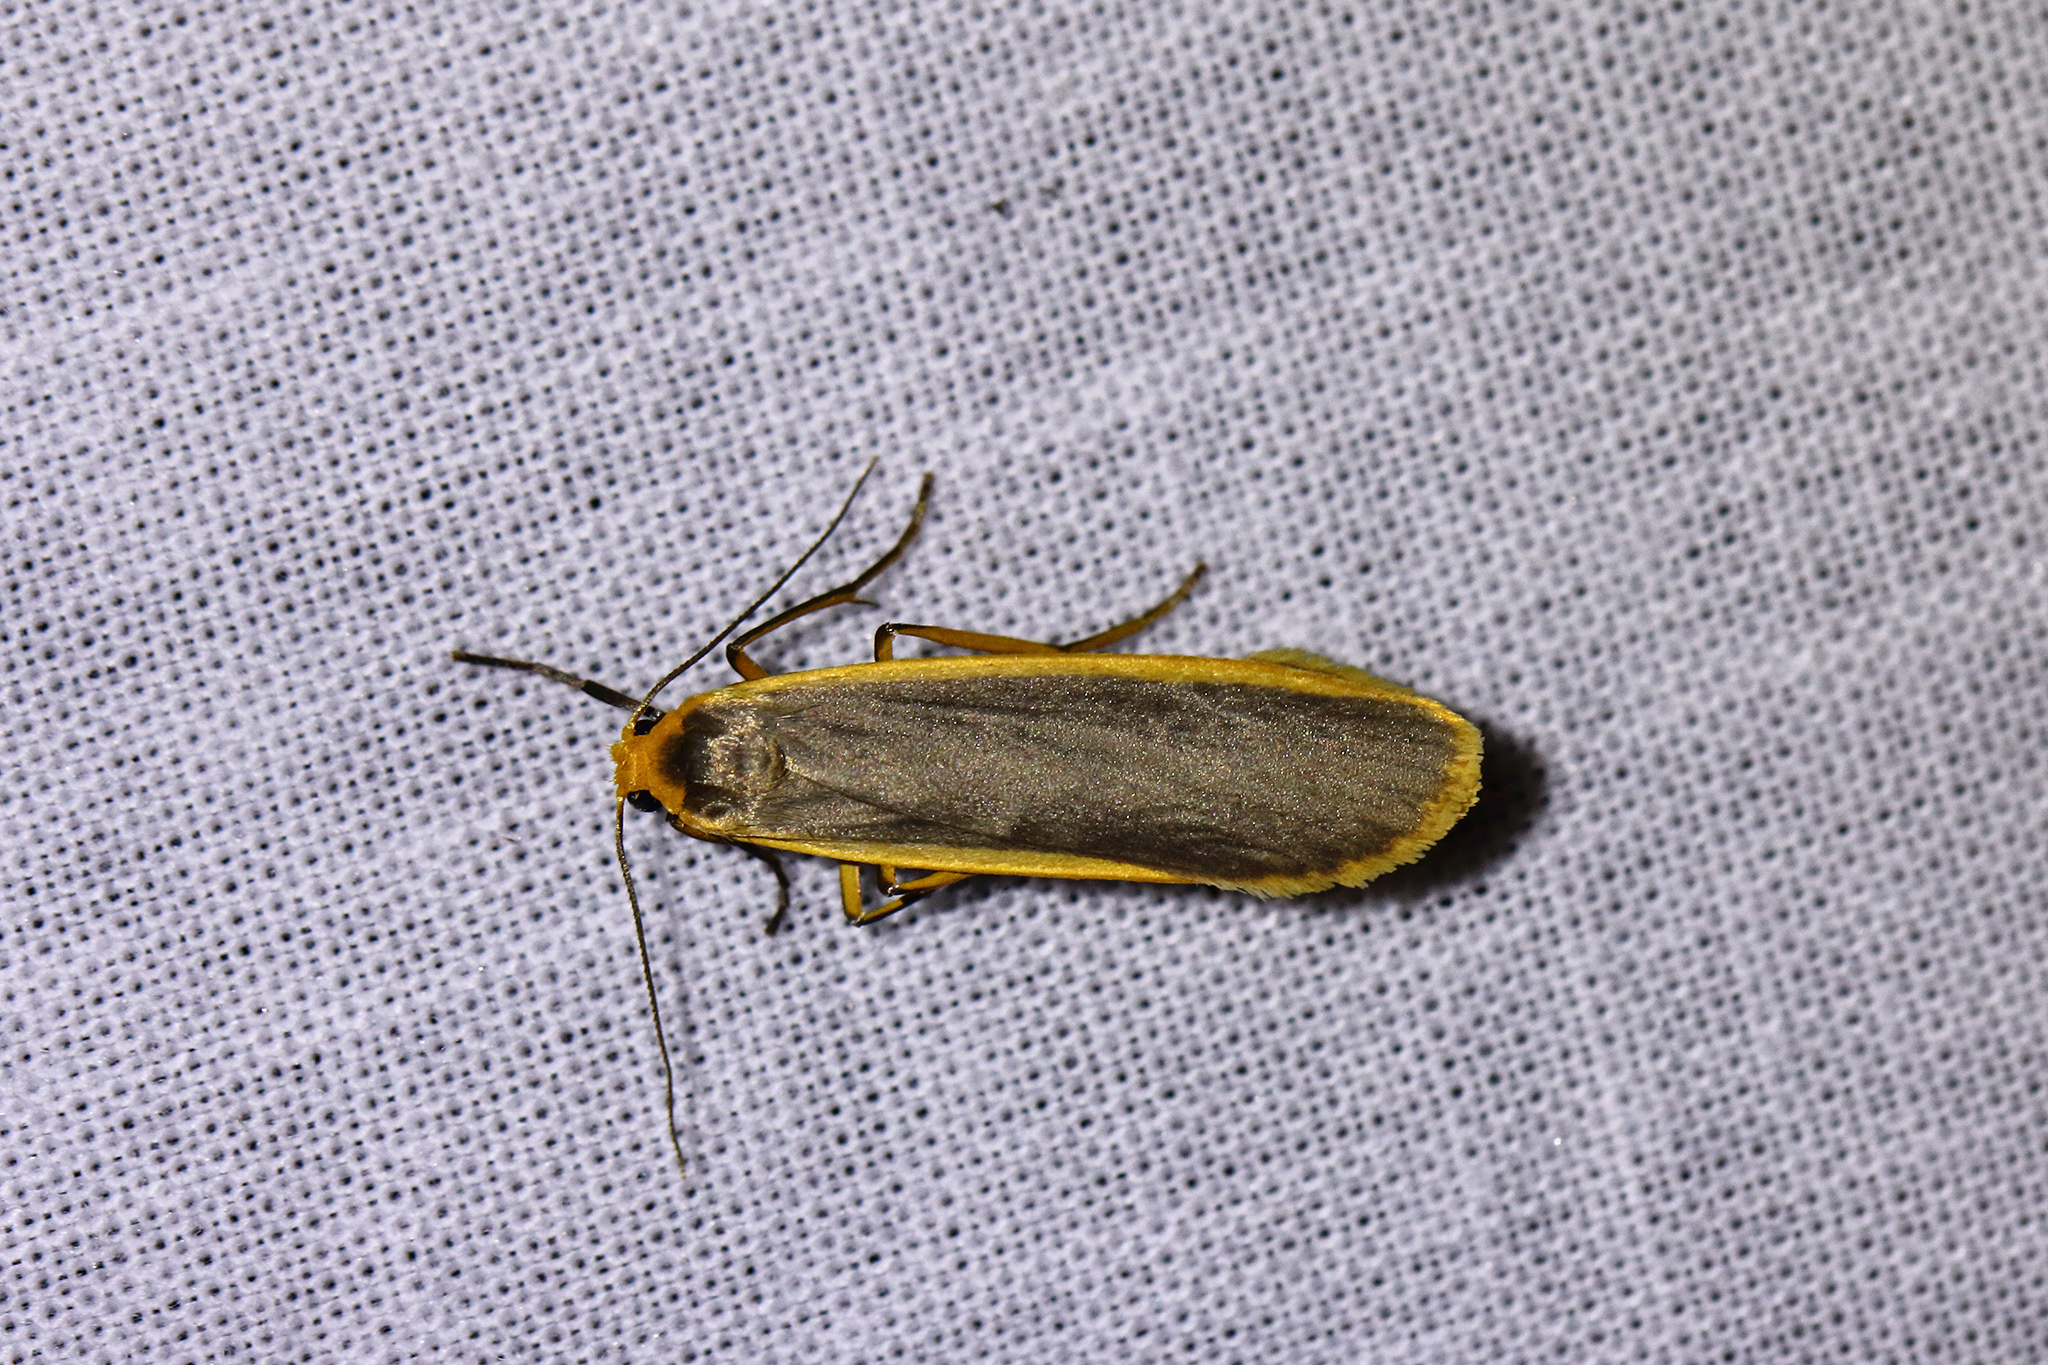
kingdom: Animalia
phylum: Arthropoda
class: Insecta
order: Lepidoptera
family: Erebidae
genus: Nyea
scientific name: Nyea lurideola
